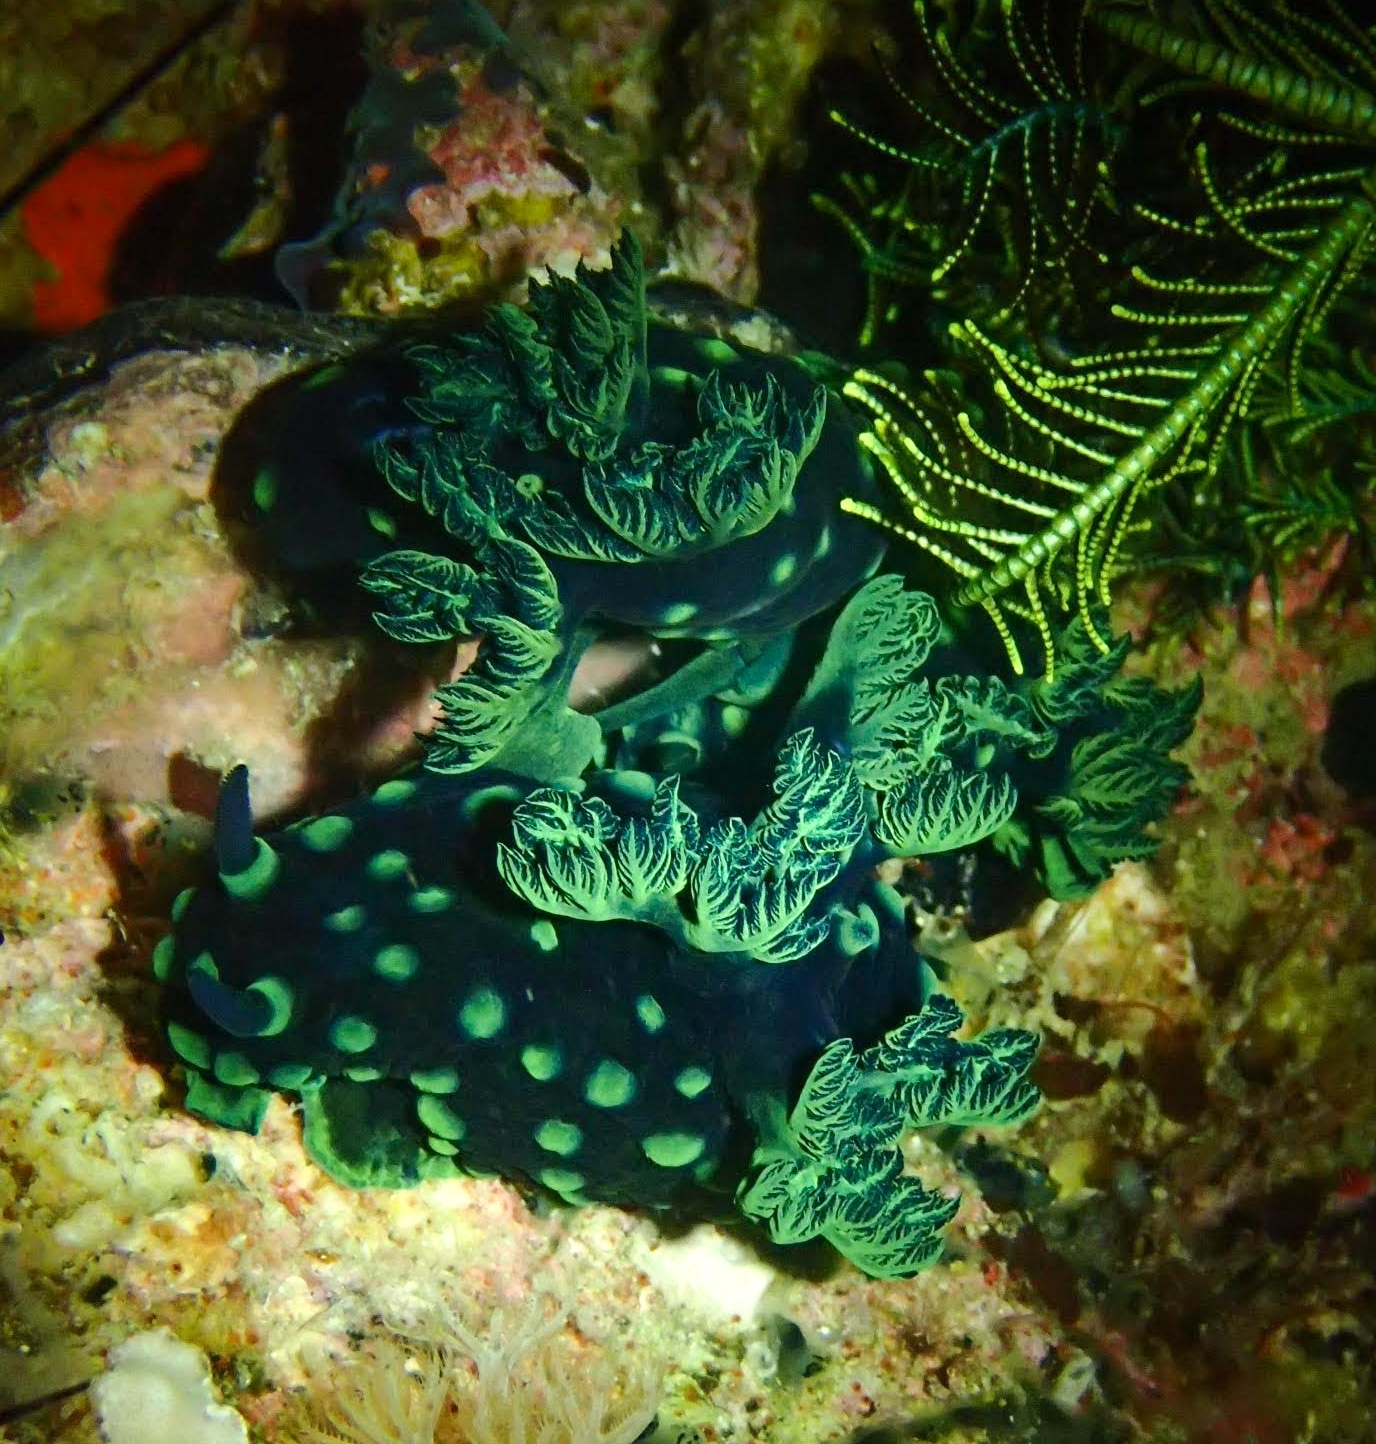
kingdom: Animalia
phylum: Mollusca
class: Gastropoda
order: Nudibranchia
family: Polyceridae
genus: Nembrotha
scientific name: Nembrotha cristata
